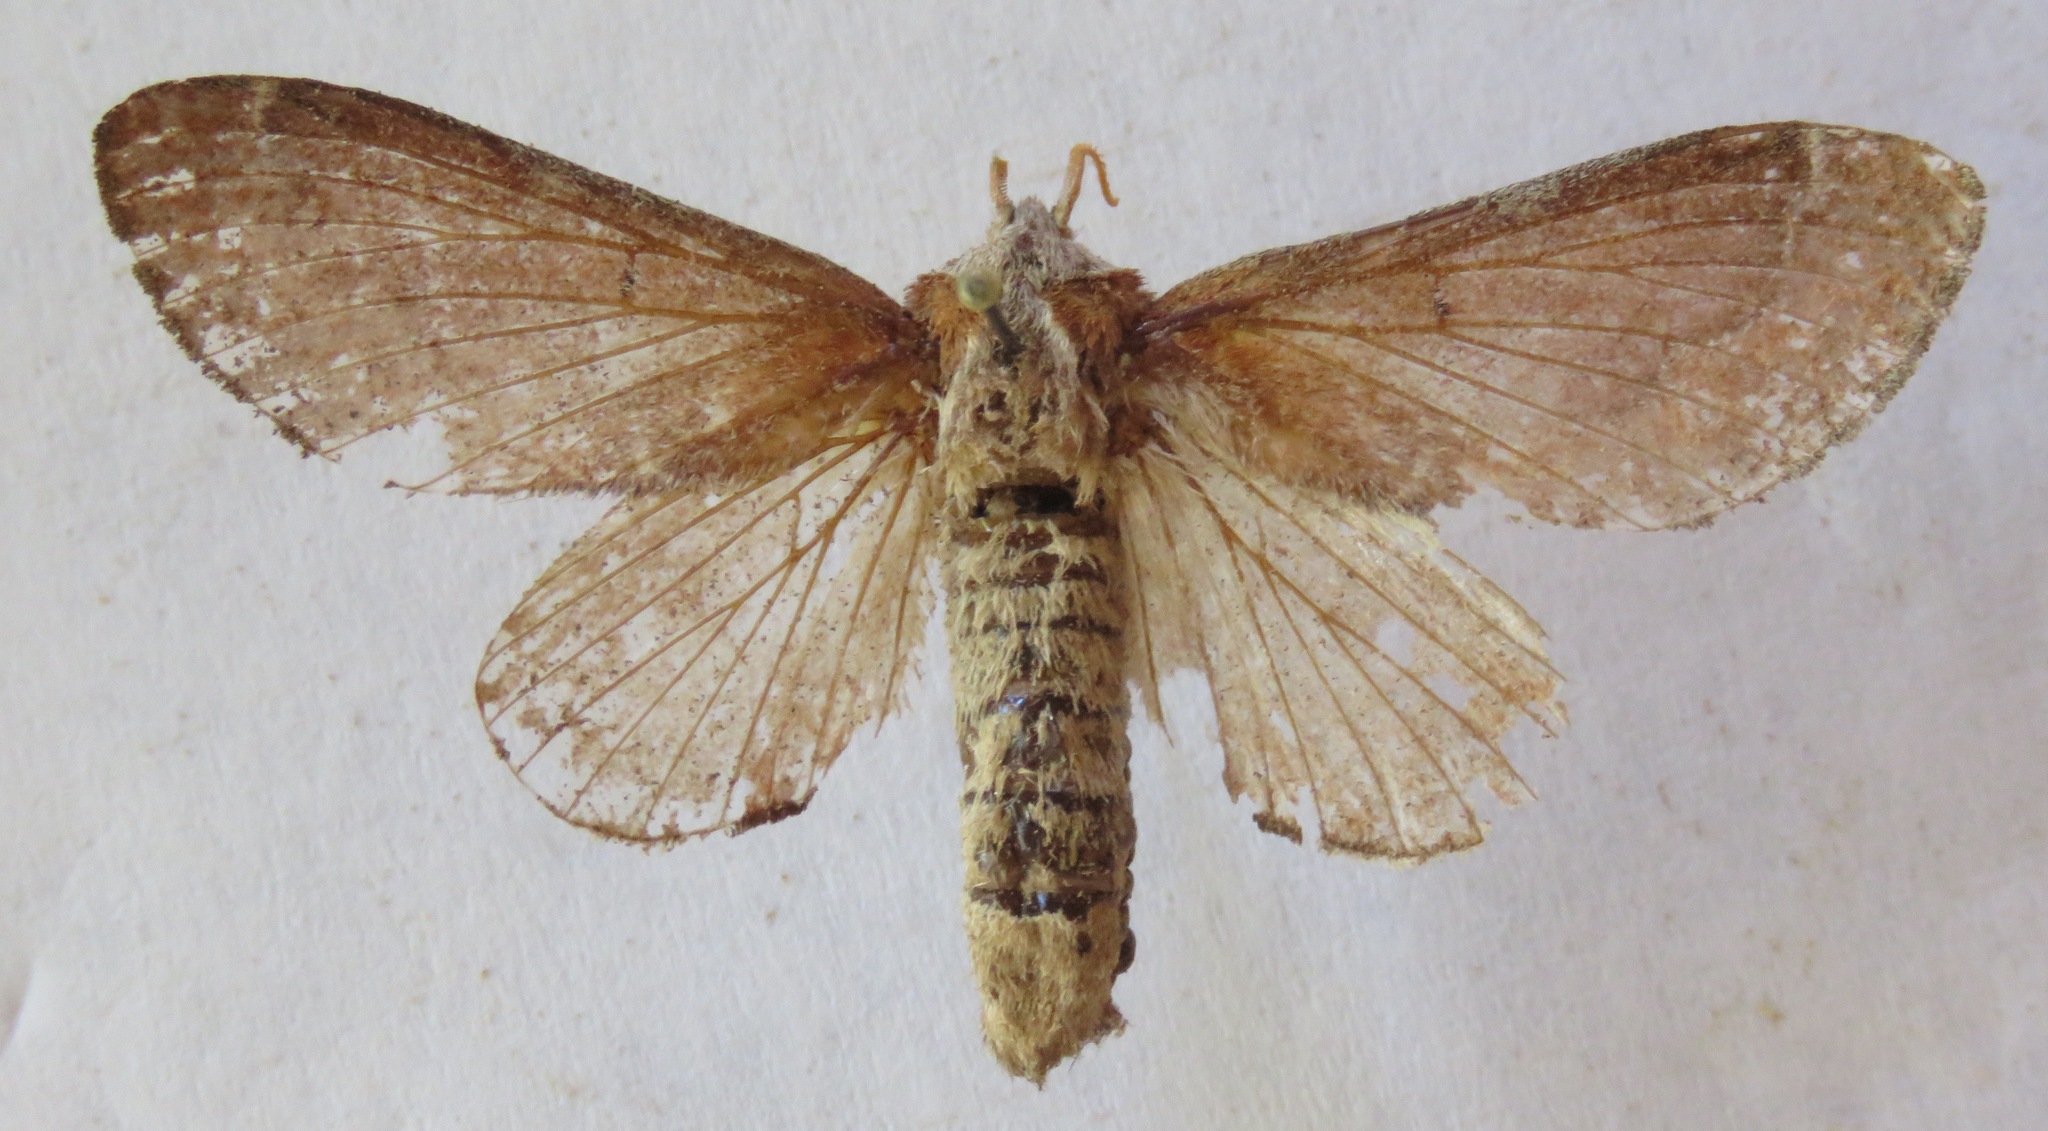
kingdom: Animalia
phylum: Arthropoda
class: Insecta
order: Lepidoptera
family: Lasiocampidae
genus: Streblote
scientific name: Streblote panda
